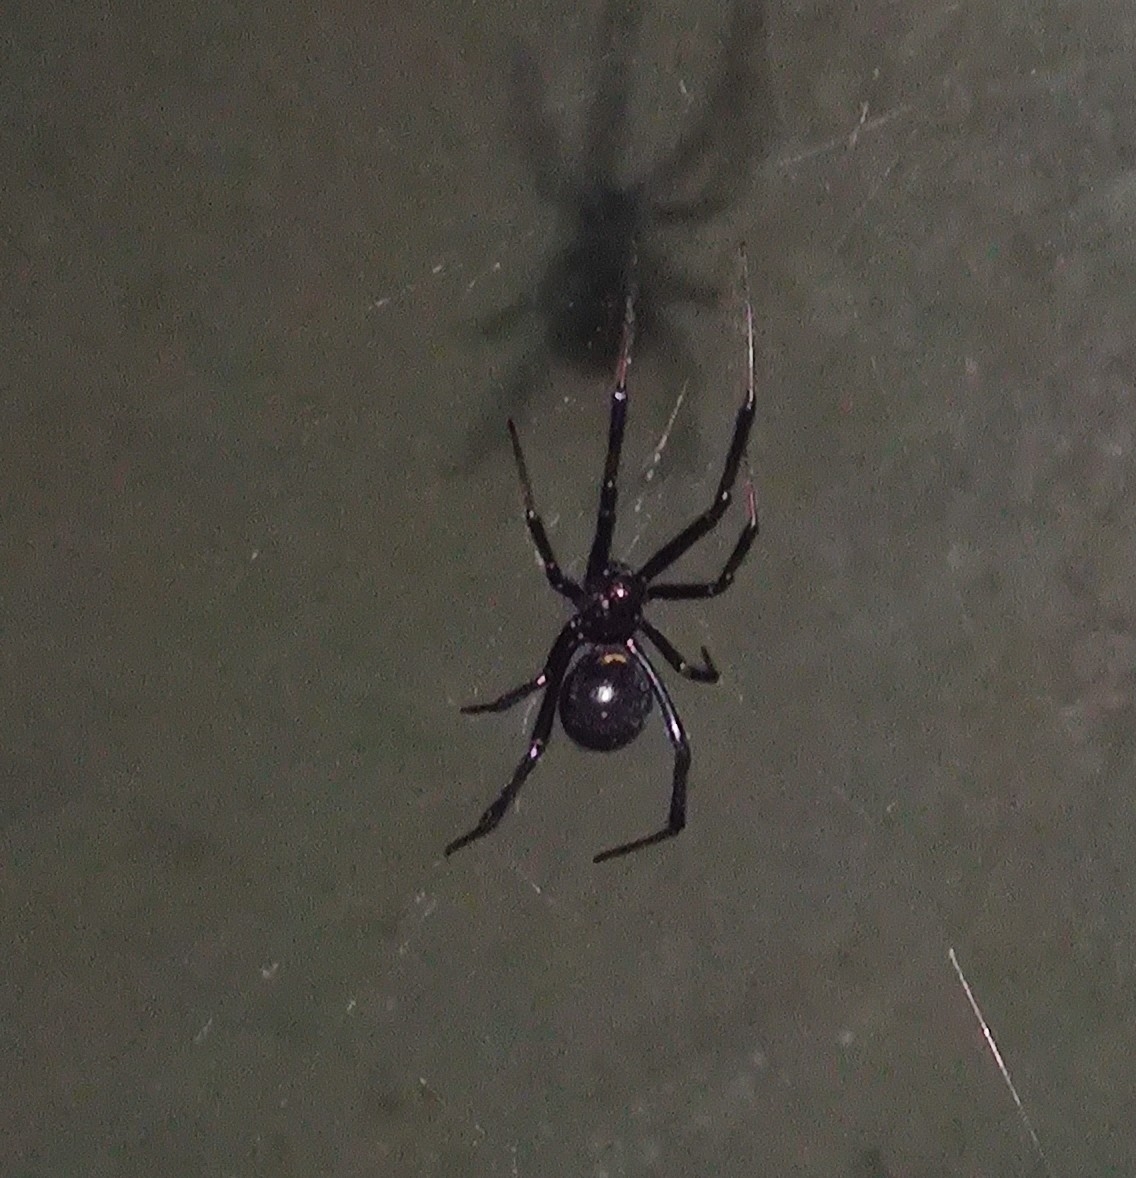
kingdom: Animalia
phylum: Arthropoda
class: Arachnida
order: Araneae
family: Theridiidae
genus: Latrodectus
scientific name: Latrodectus hesperus
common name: Western black widow
